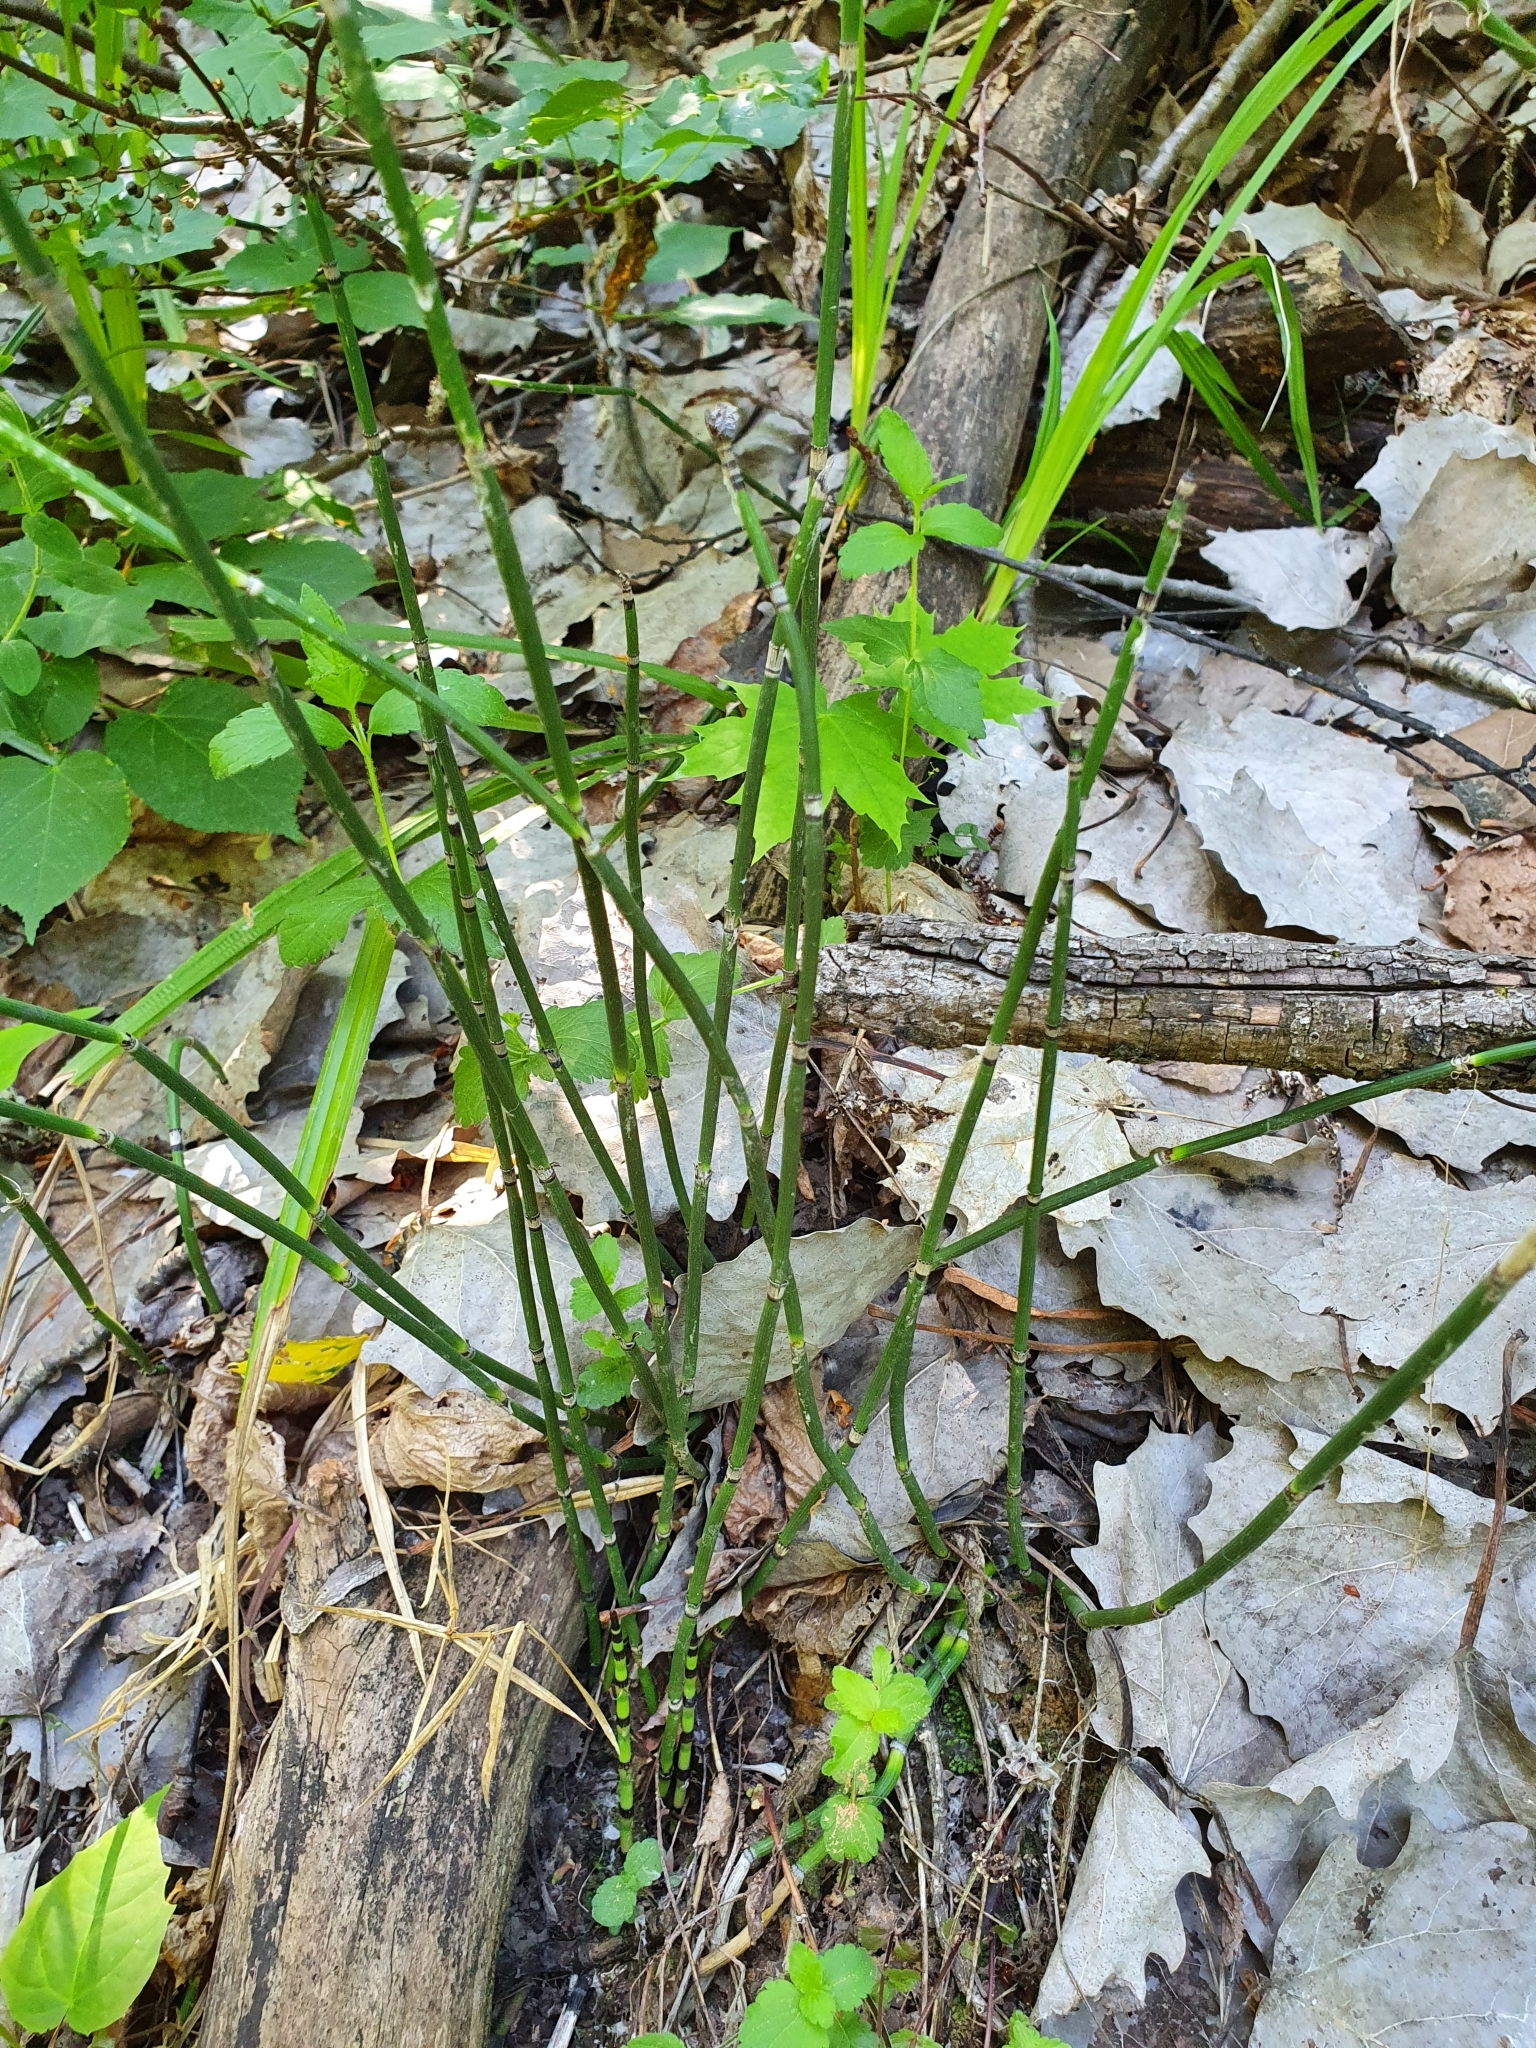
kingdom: Plantae
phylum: Tracheophyta
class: Polypodiopsida
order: Equisetales
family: Equisetaceae
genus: Equisetum
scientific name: Equisetum hyemale
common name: Rough horsetail
